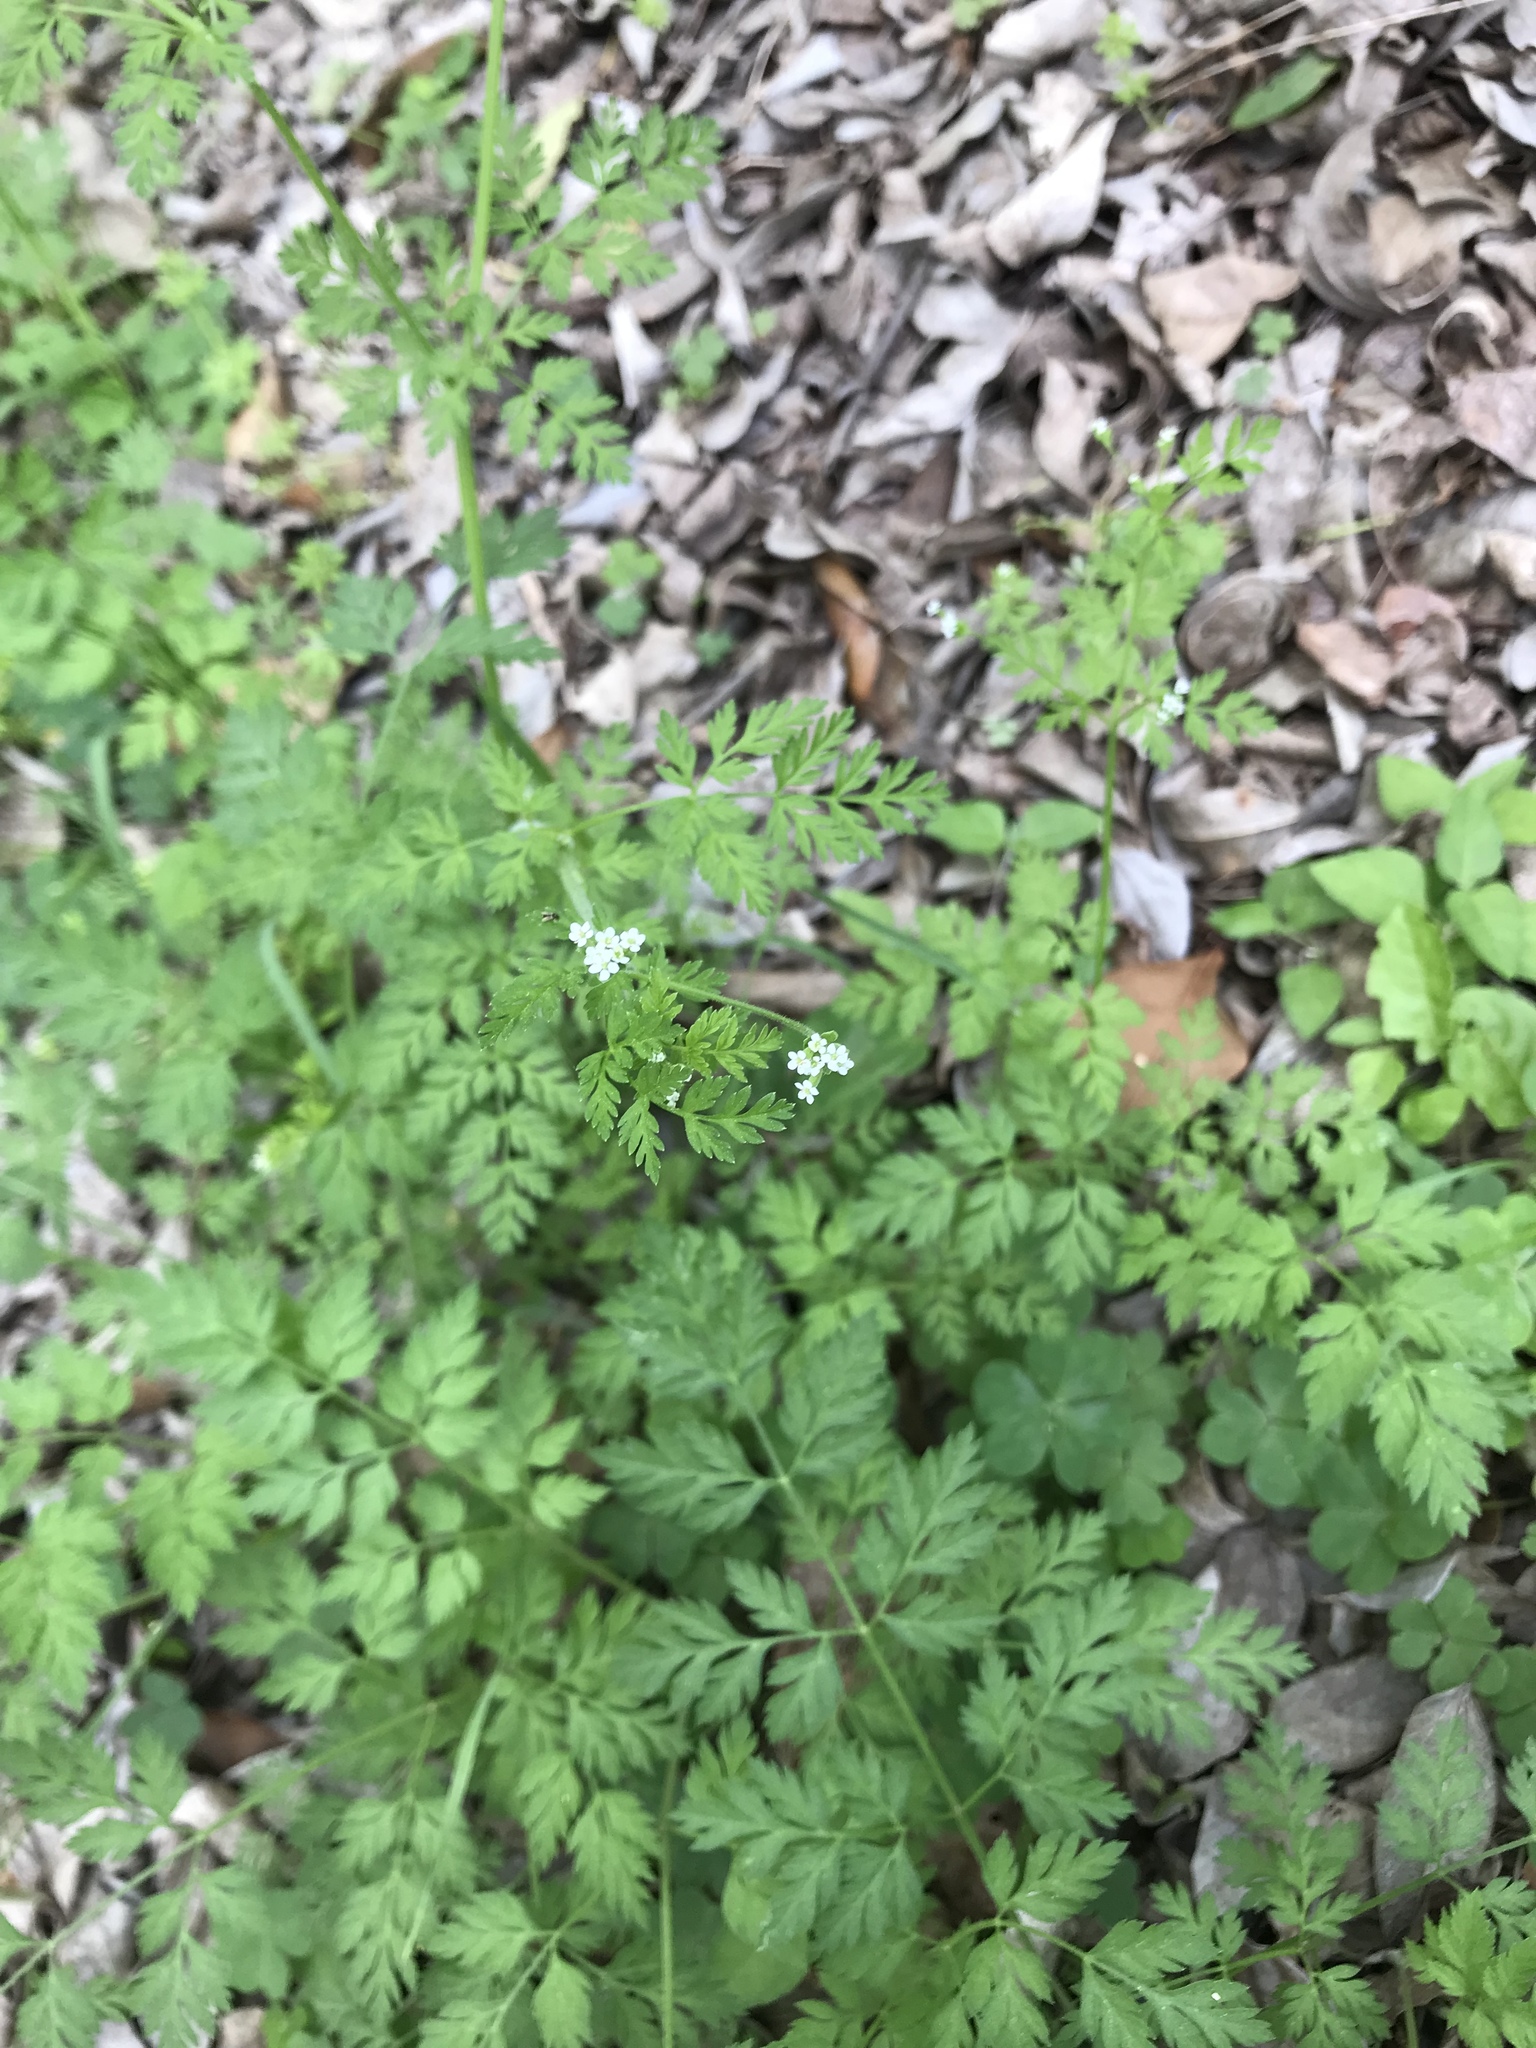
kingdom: Plantae
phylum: Tracheophyta
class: Magnoliopsida
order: Apiales
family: Apiaceae
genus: Chaerophyllum
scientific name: Chaerophyllum tainturieri
